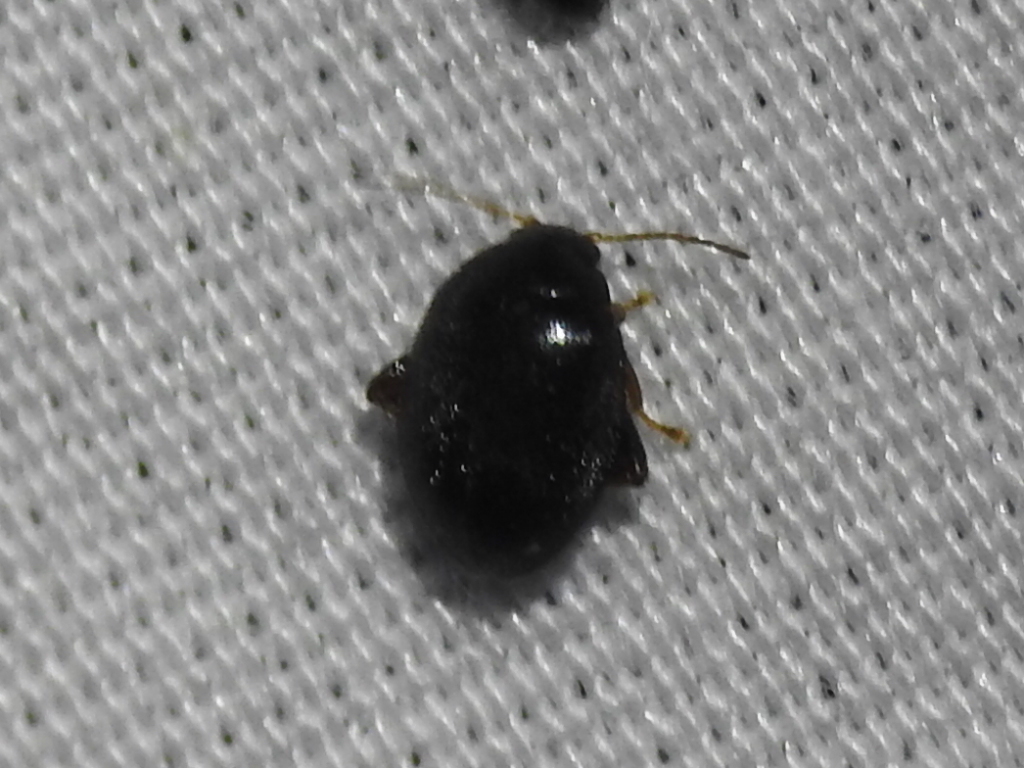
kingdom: Animalia
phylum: Arthropoda
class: Insecta
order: Coleoptera
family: Scirtidae
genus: Scirtes
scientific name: Scirtes tibialis
